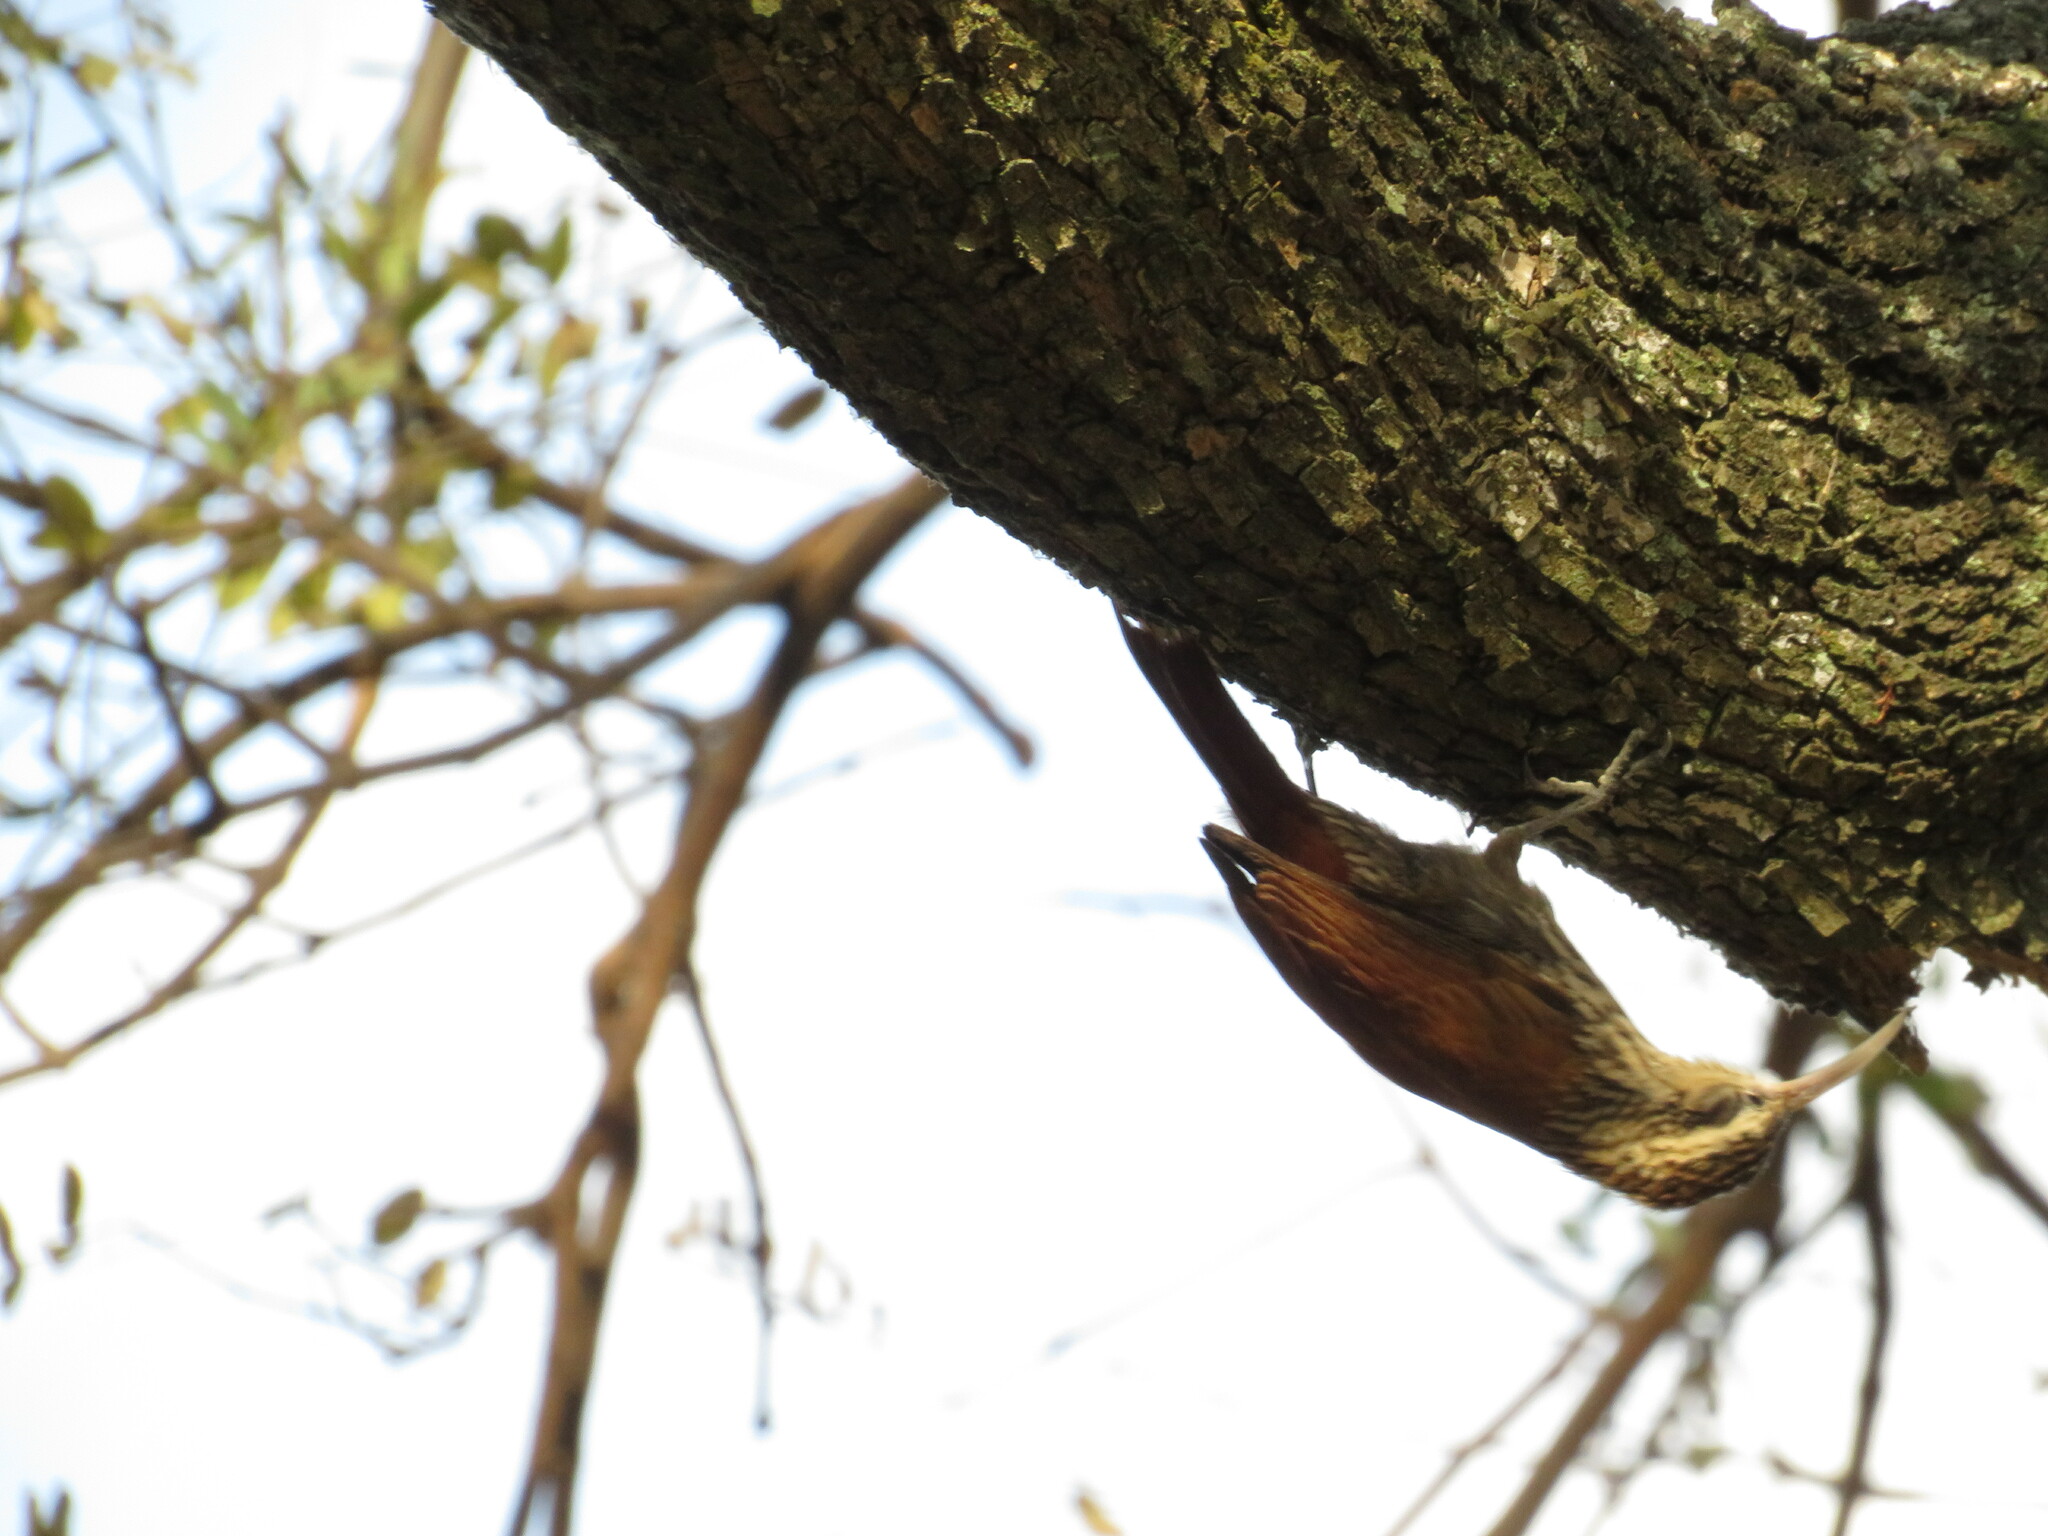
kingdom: Animalia
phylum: Chordata
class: Aves
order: Passeriformes
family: Furnariidae
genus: Lepidocolaptes
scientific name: Lepidocolaptes angustirostris
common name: Narrow-billed woodcreeper
